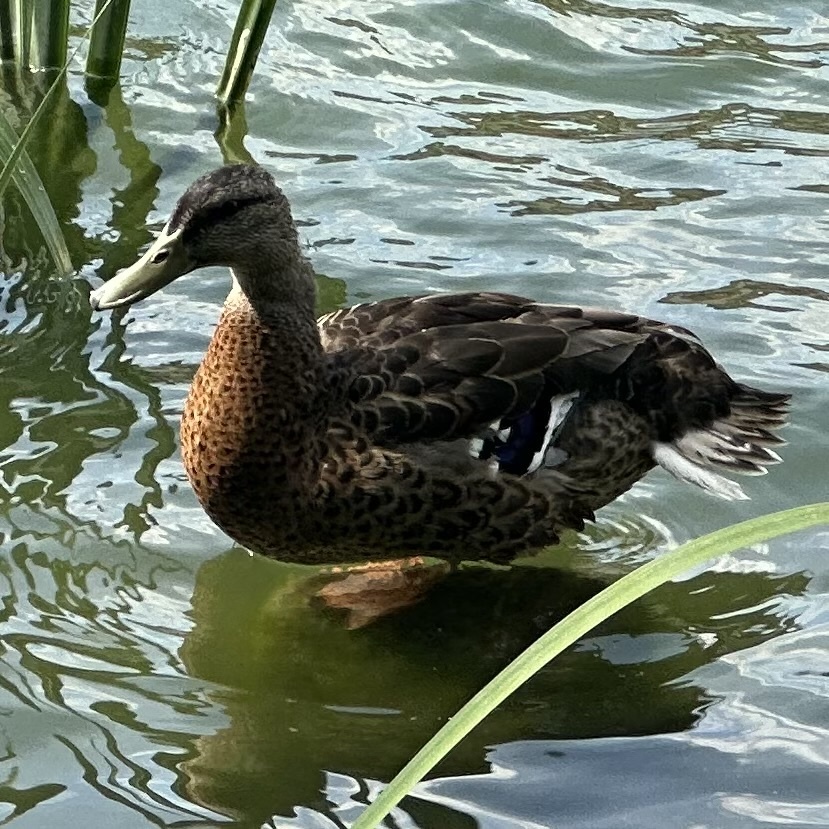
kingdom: Animalia
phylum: Chordata
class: Aves
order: Anseriformes
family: Anatidae
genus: Anas
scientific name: Anas platyrhynchos
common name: Mallard
